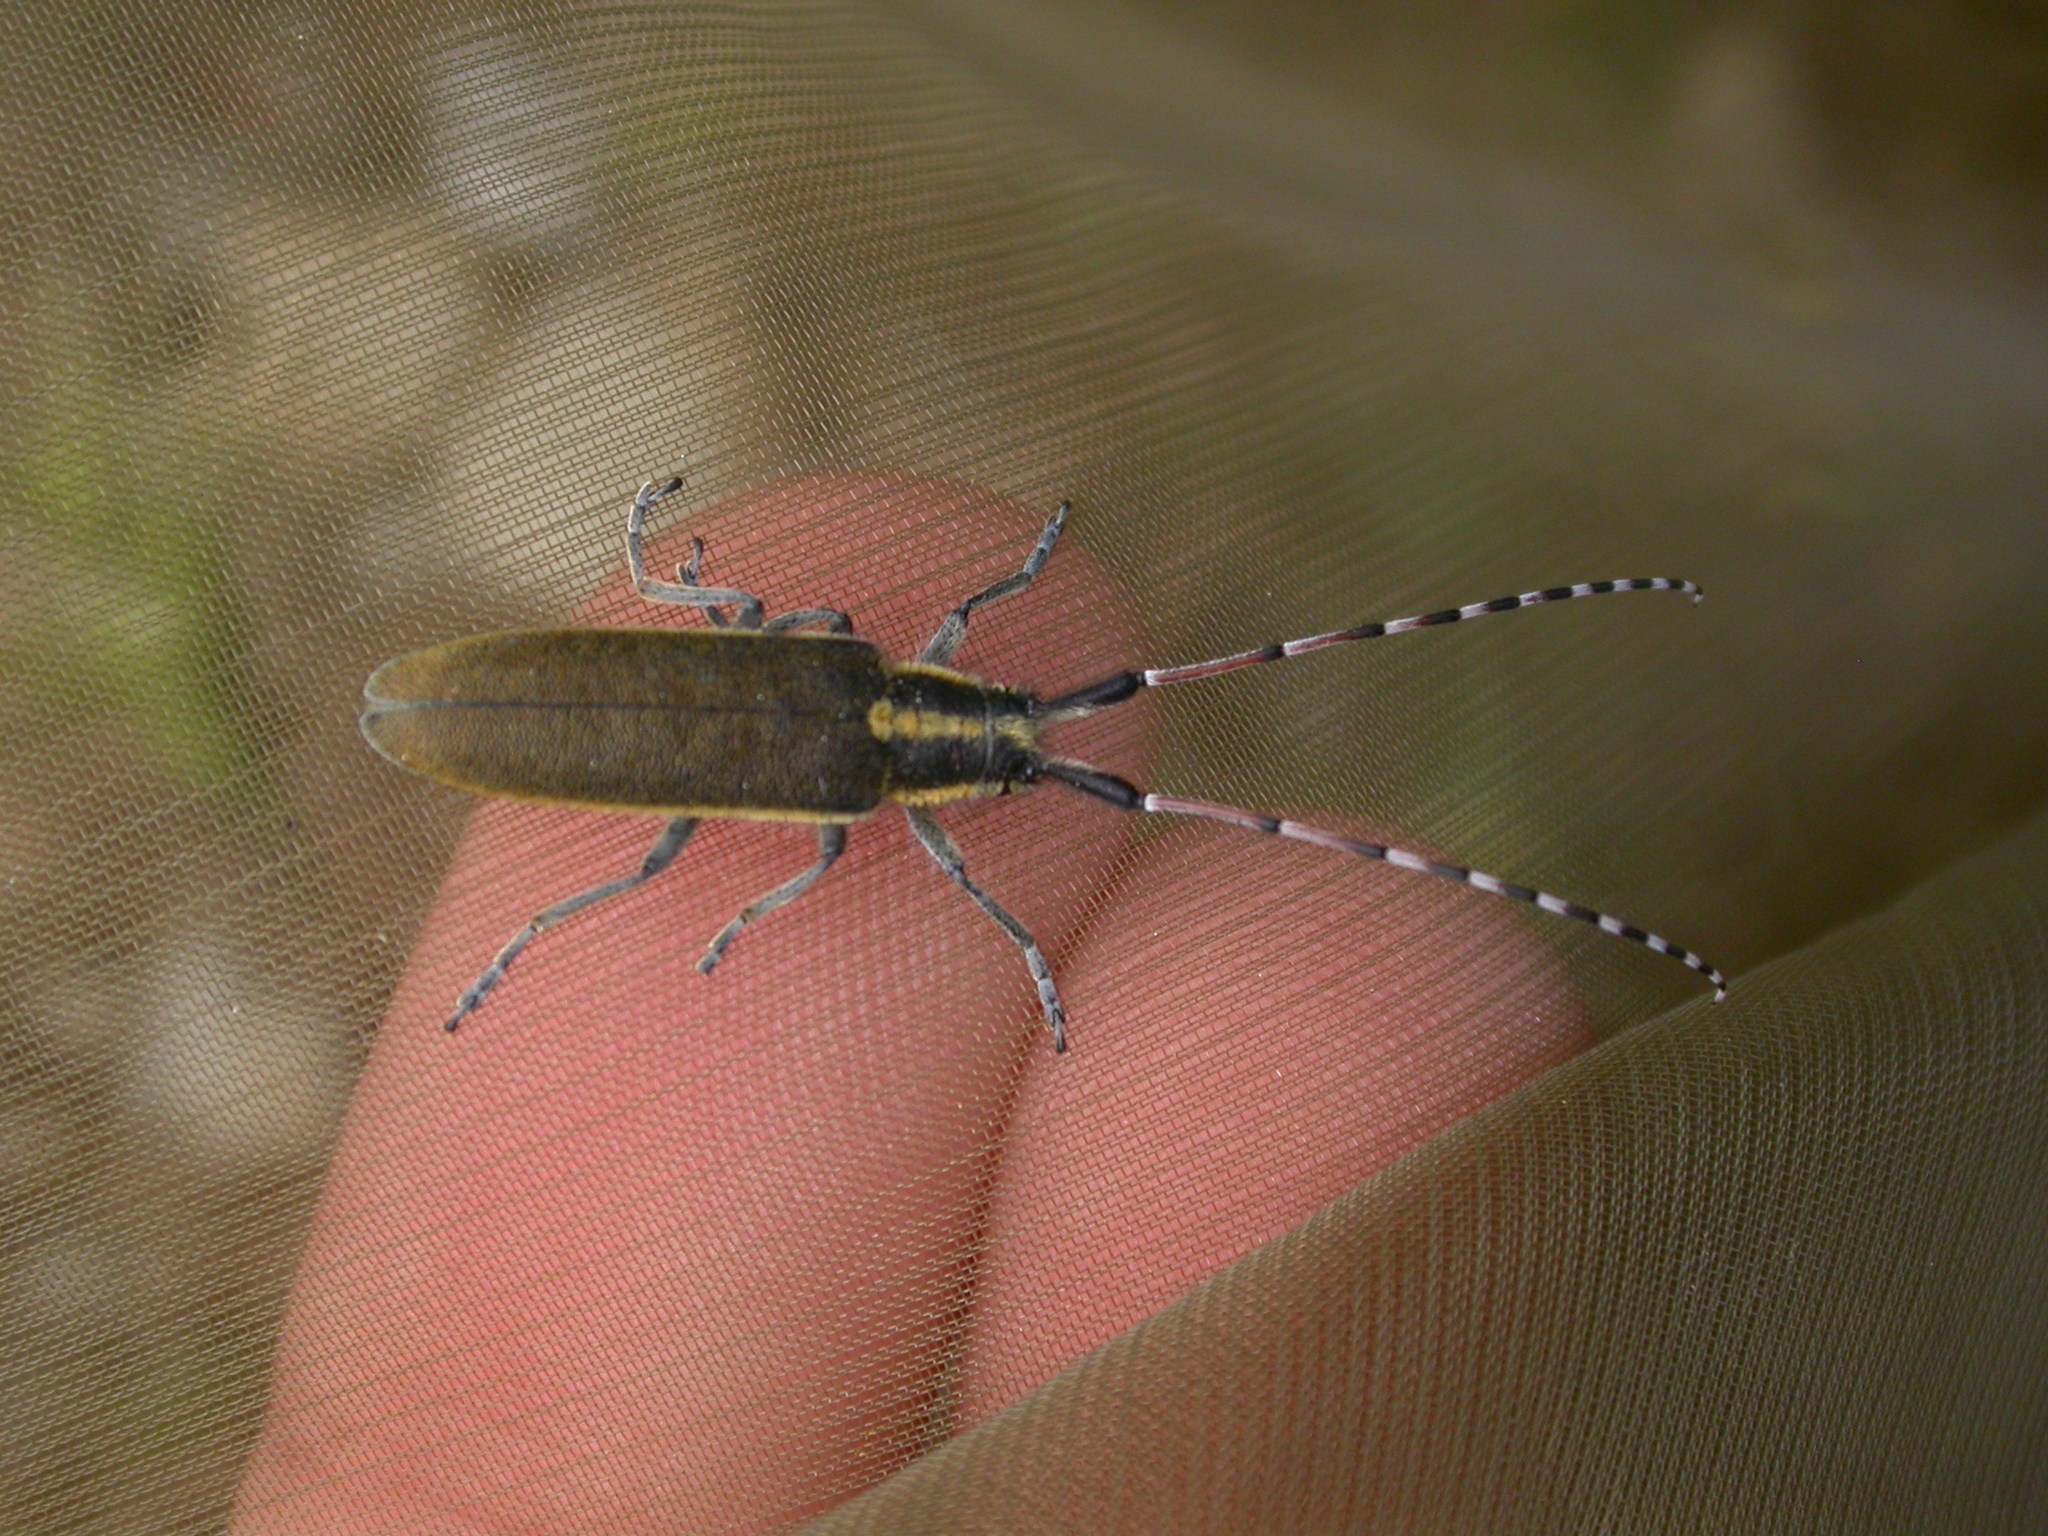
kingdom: Animalia
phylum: Arthropoda
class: Insecta
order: Coleoptera
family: Cerambycidae
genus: Agapanthia
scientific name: Agapanthia asphodeli
